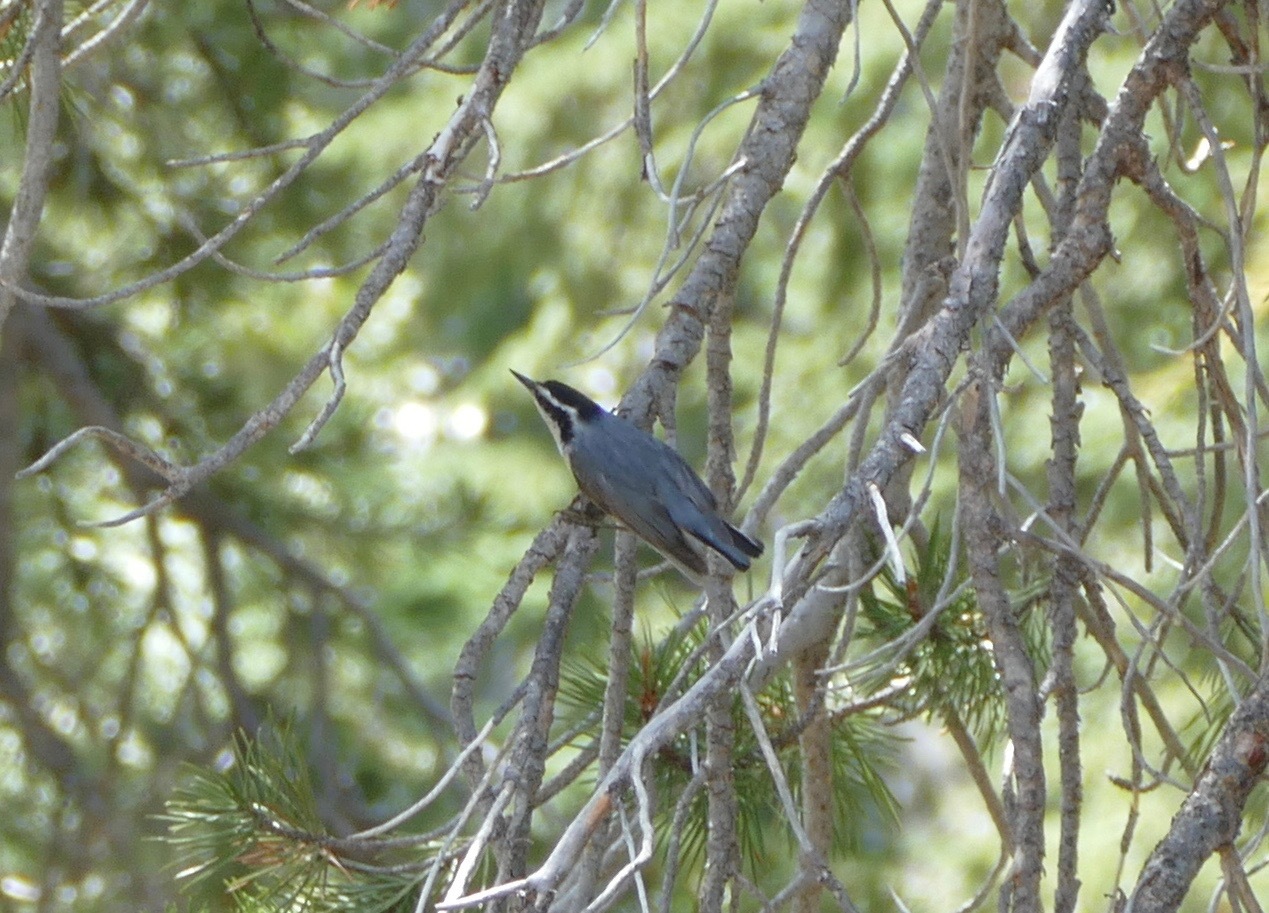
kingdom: Animalia
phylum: Chordata
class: Aves
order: Passeriformes
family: Sittidae
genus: Sitta
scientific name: Sitta canadensis
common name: Red-breasted nuthatch
